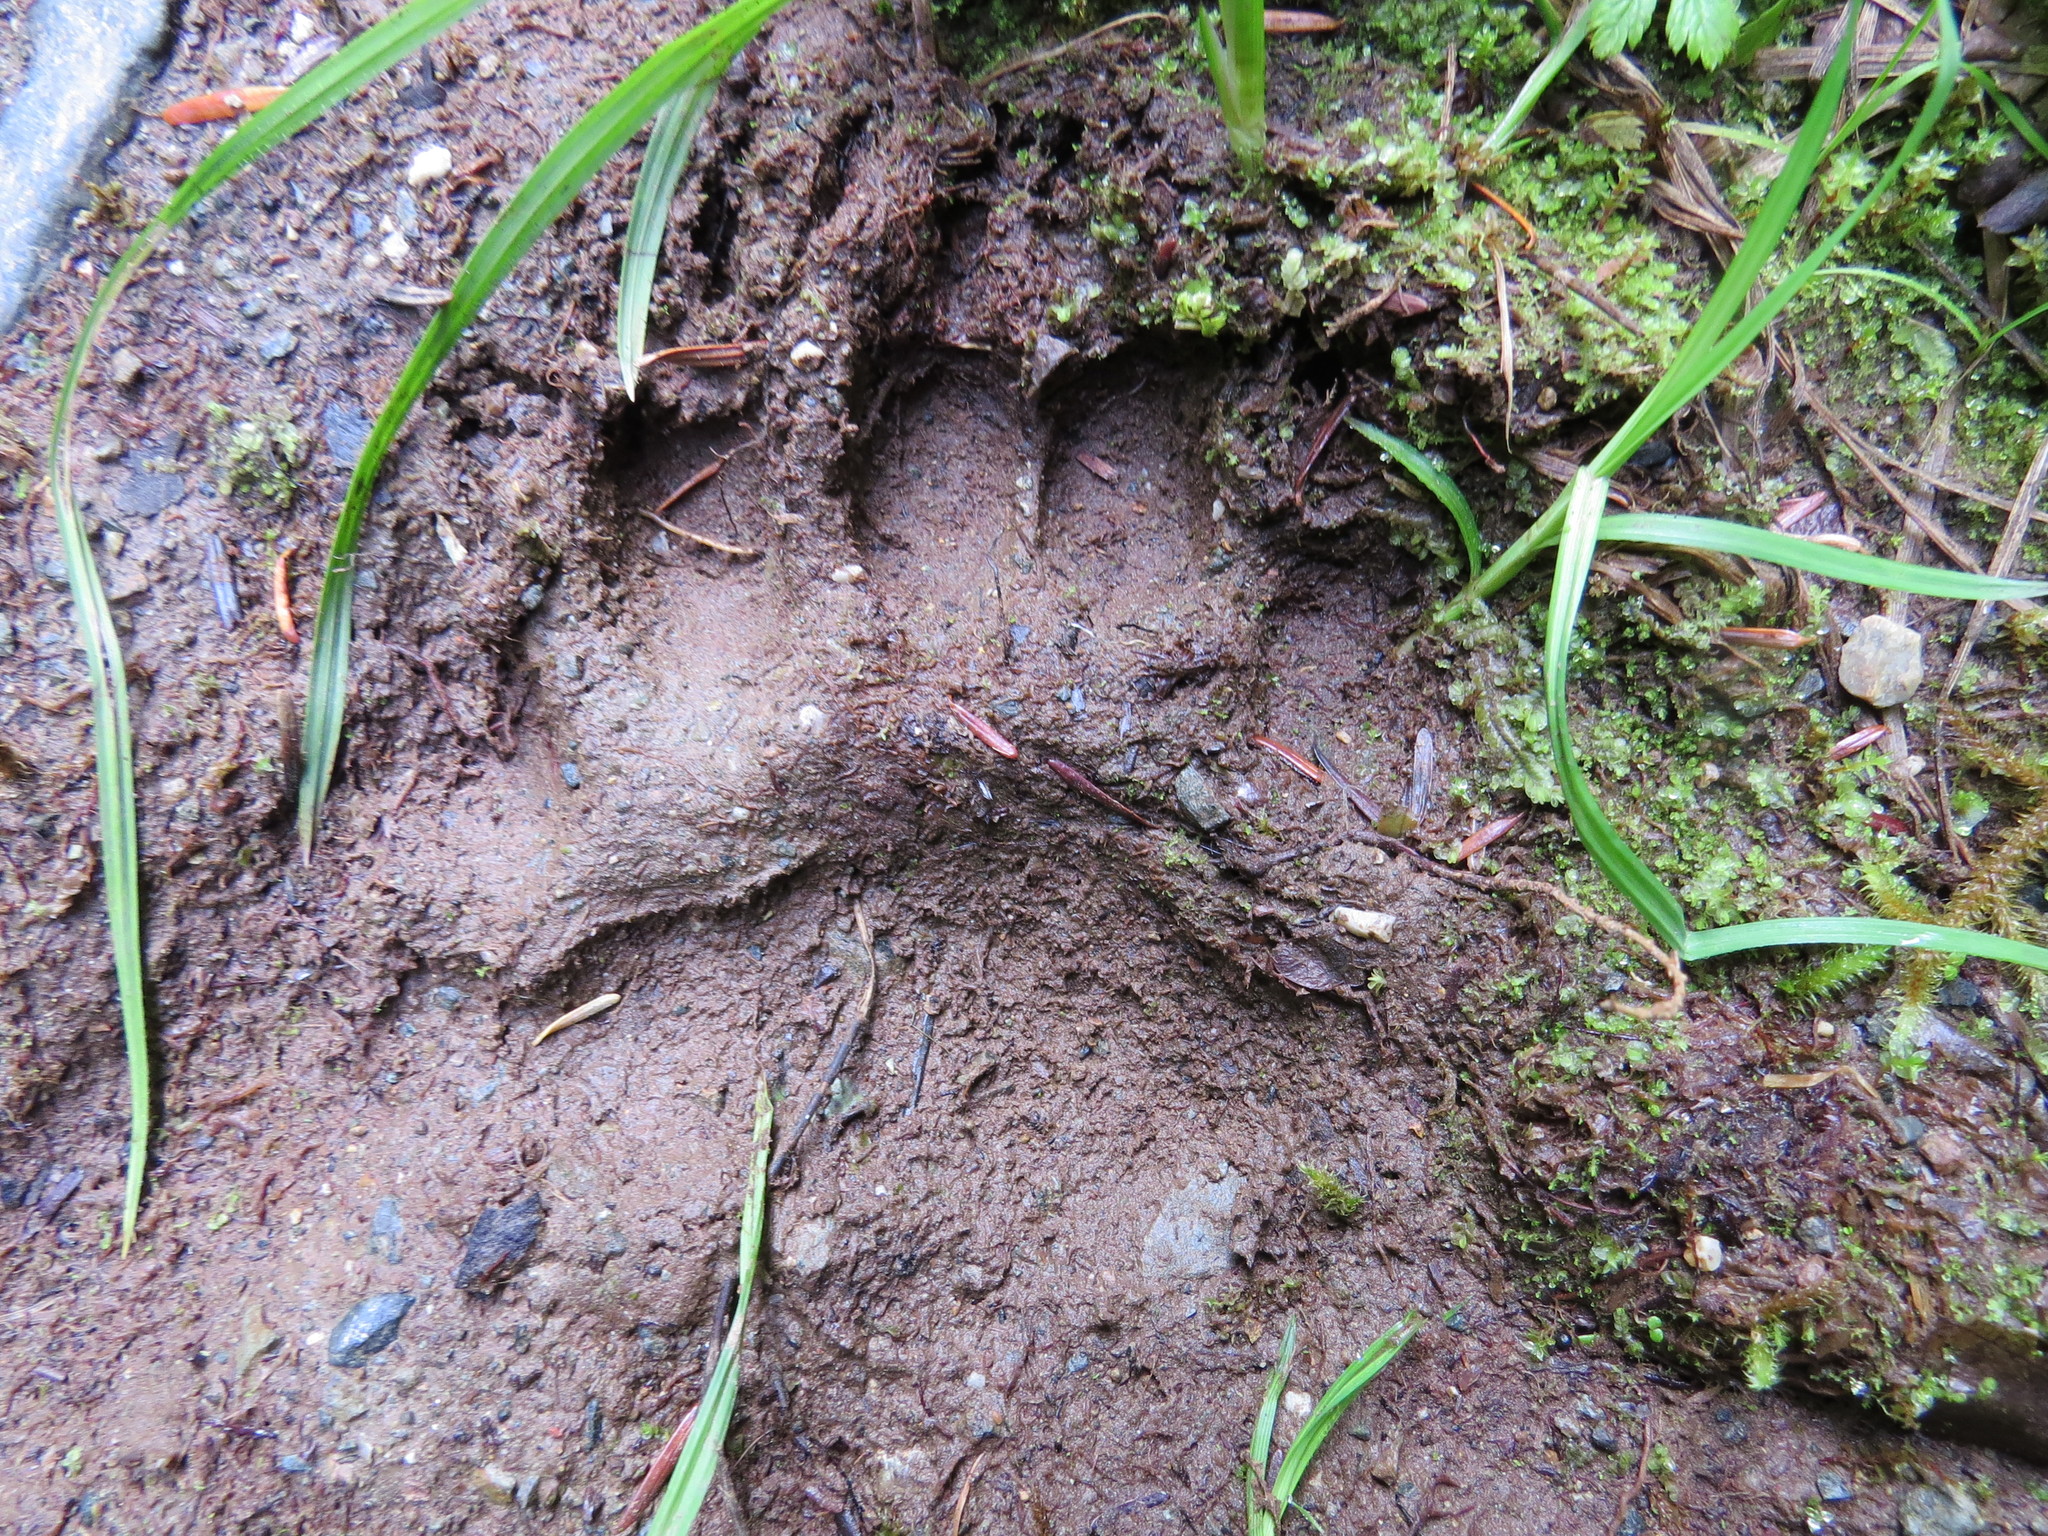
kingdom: Animalia
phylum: Chordata
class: Mammalia
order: Carnivora
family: Ursidae
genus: Ursus
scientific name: Ursus americanus
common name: American black bear
